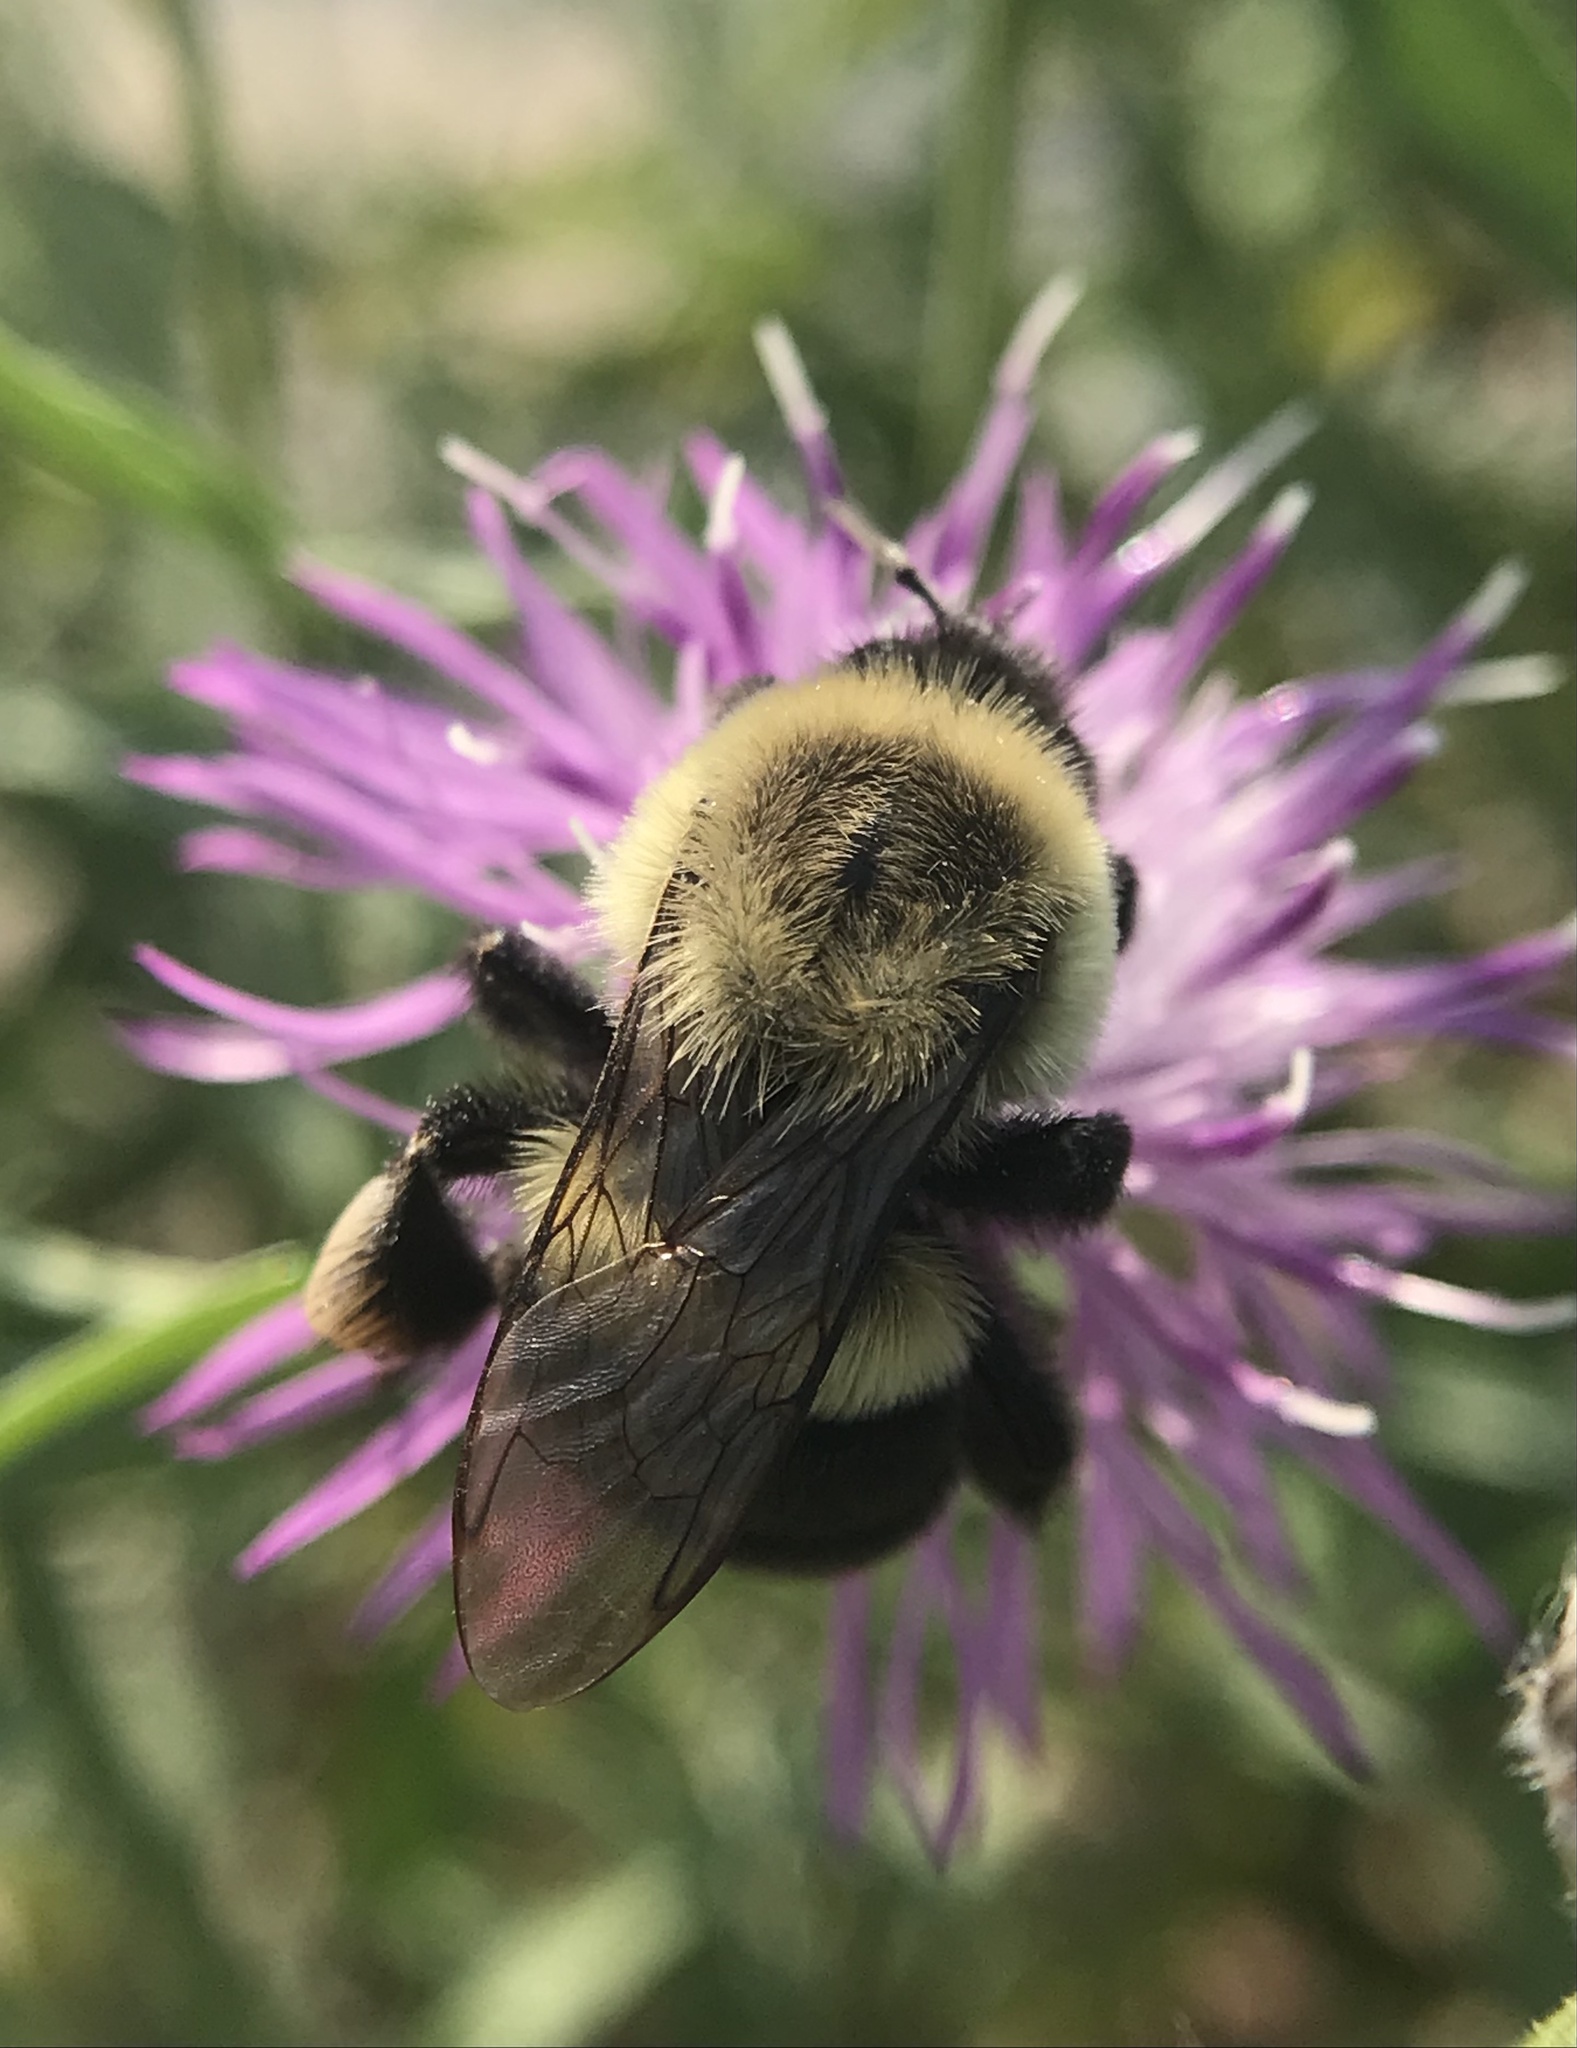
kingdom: Animalia
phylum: Arthropoda
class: Insecta
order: Hymenoptera
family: Apidae
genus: Bombus
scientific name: Bombus impatiens
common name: Common eastern bumble bee
